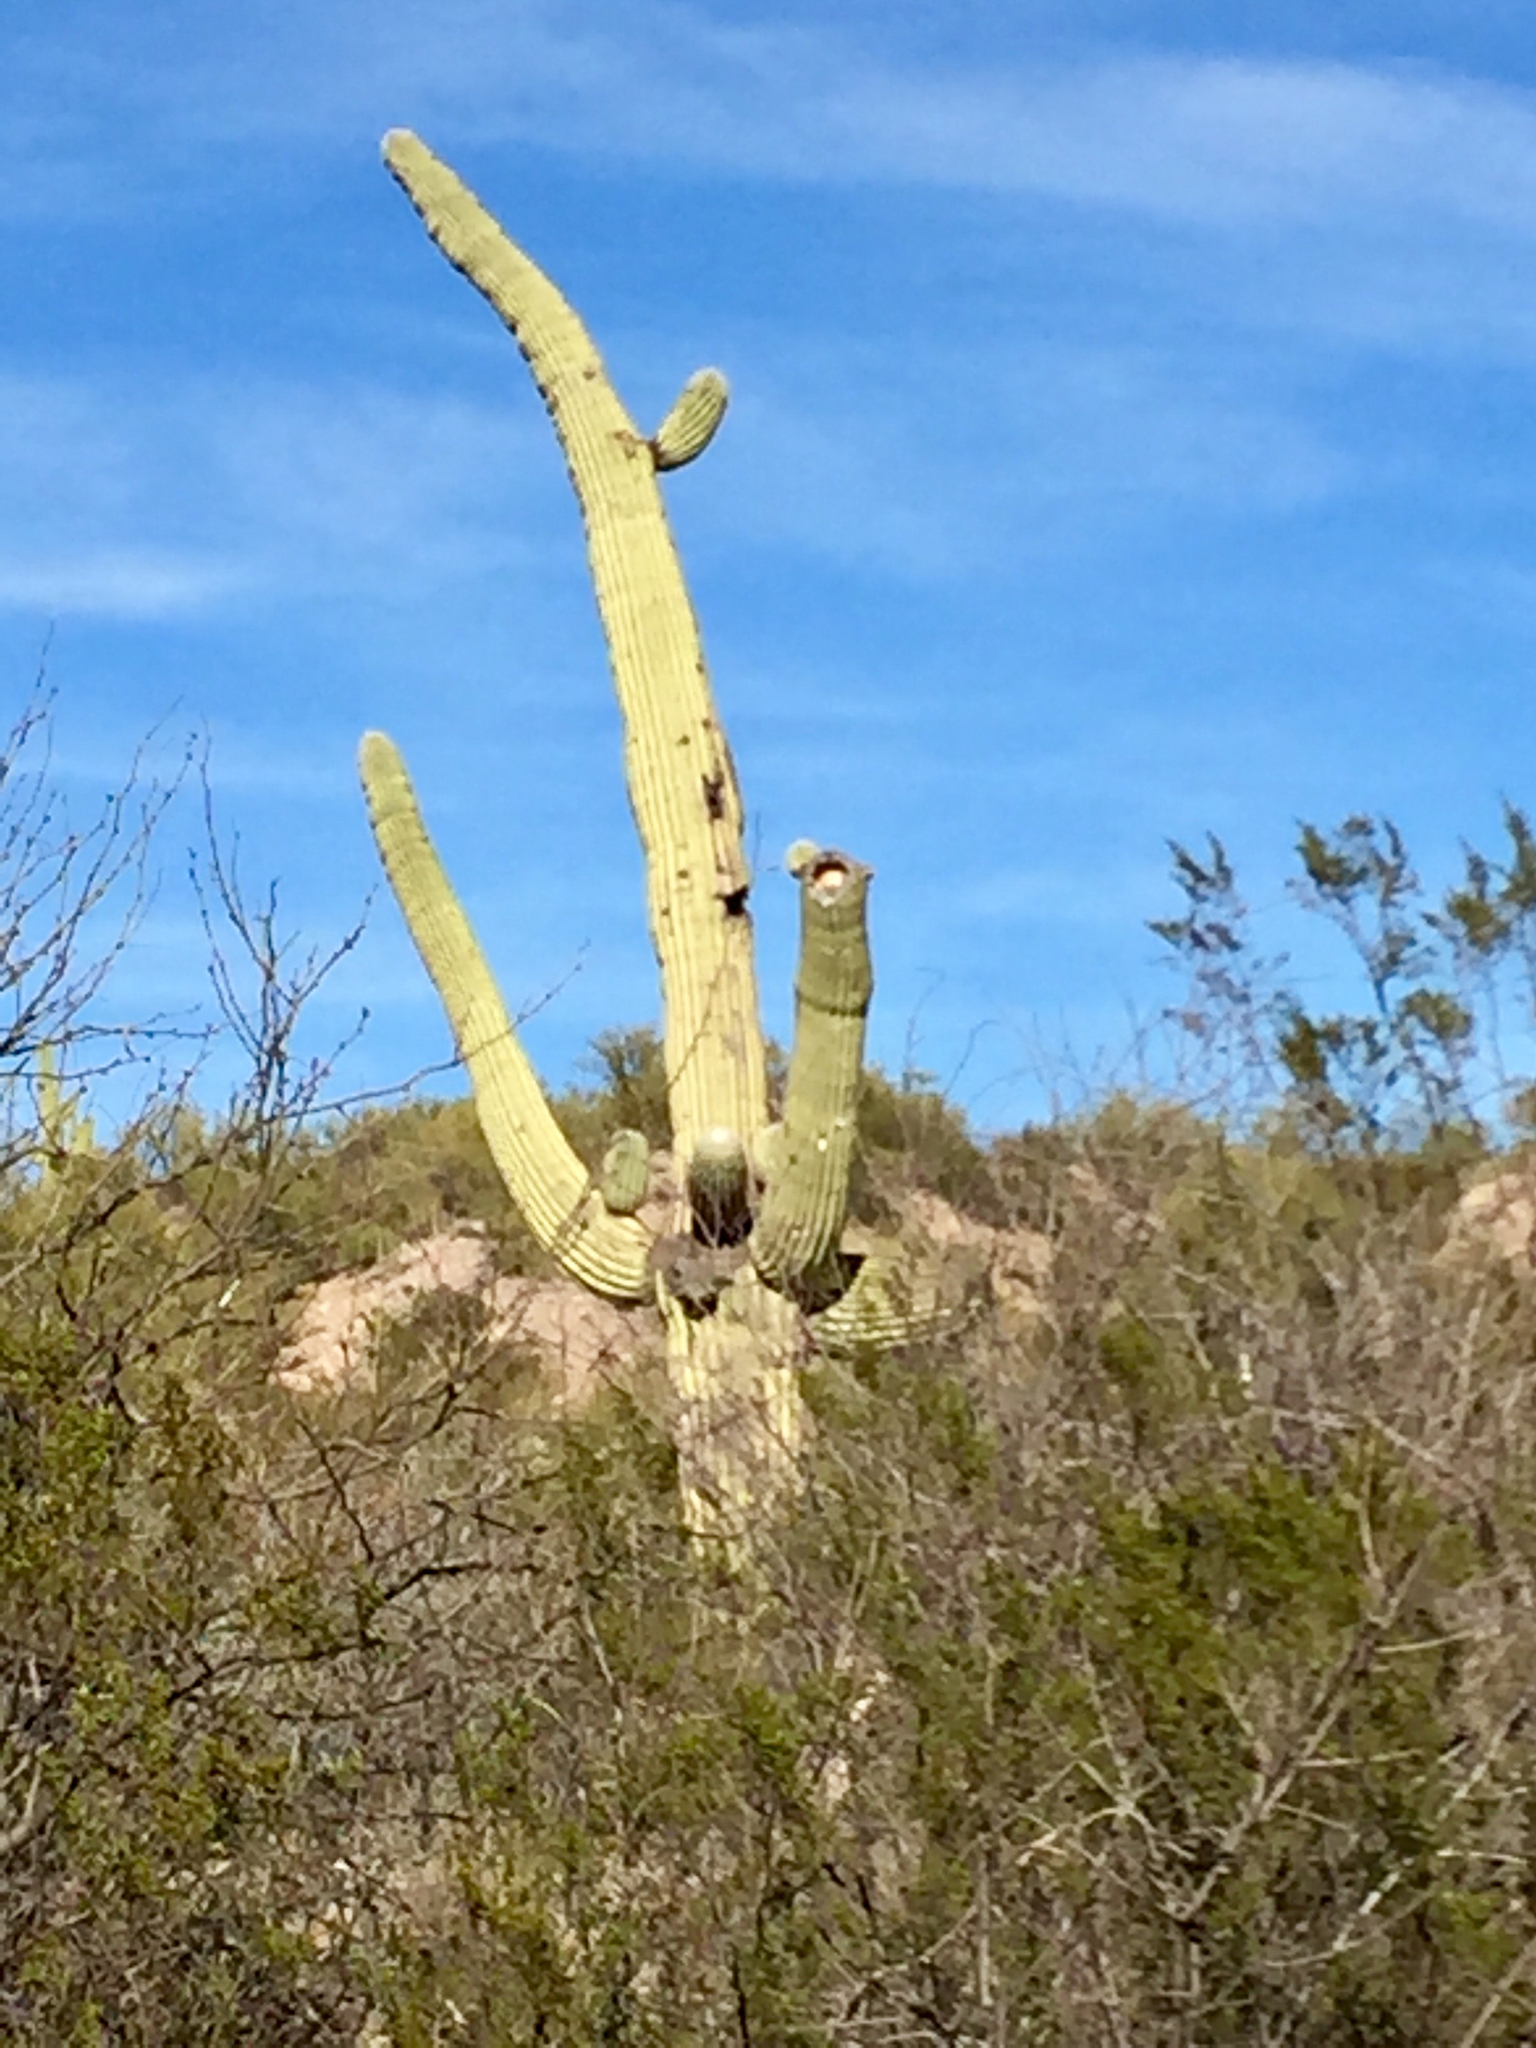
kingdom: Plantae
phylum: Tracheophyta
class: Magnoliopsida
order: Caryophyllales
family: Cactaceae
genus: Carnegiea
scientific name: Carnegiea gigantea
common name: Saguaro
